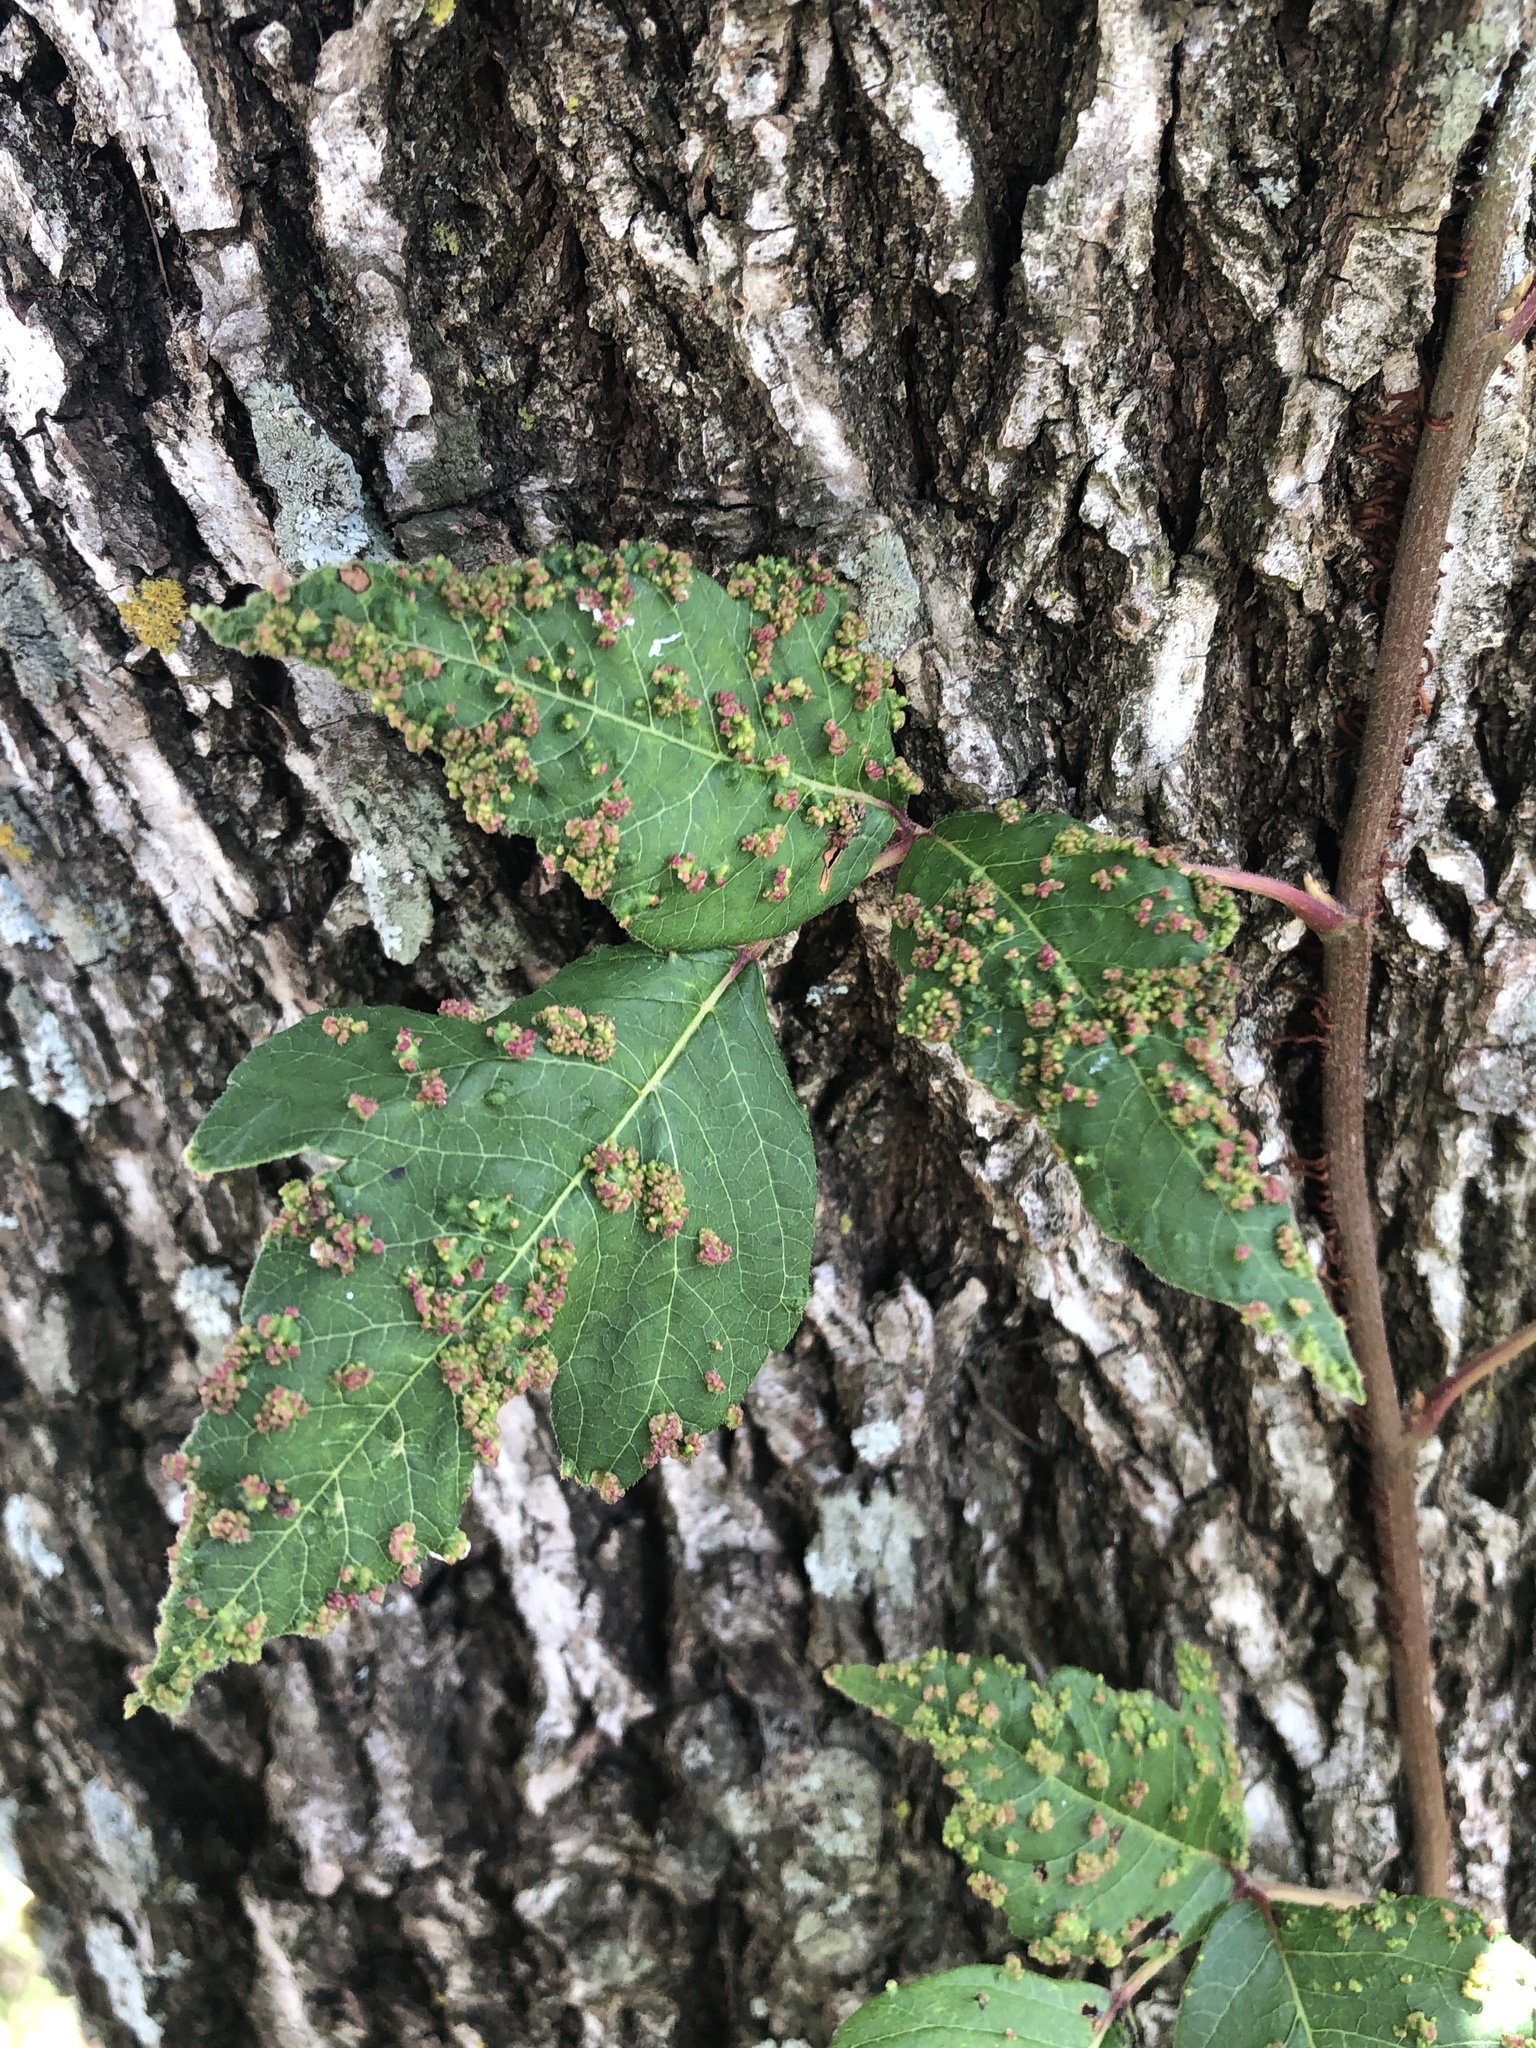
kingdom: Animalia
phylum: Arthropoda
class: Arachnida
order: Trombidiformes
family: Eriophyidae
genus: Aculops
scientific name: Aculops
